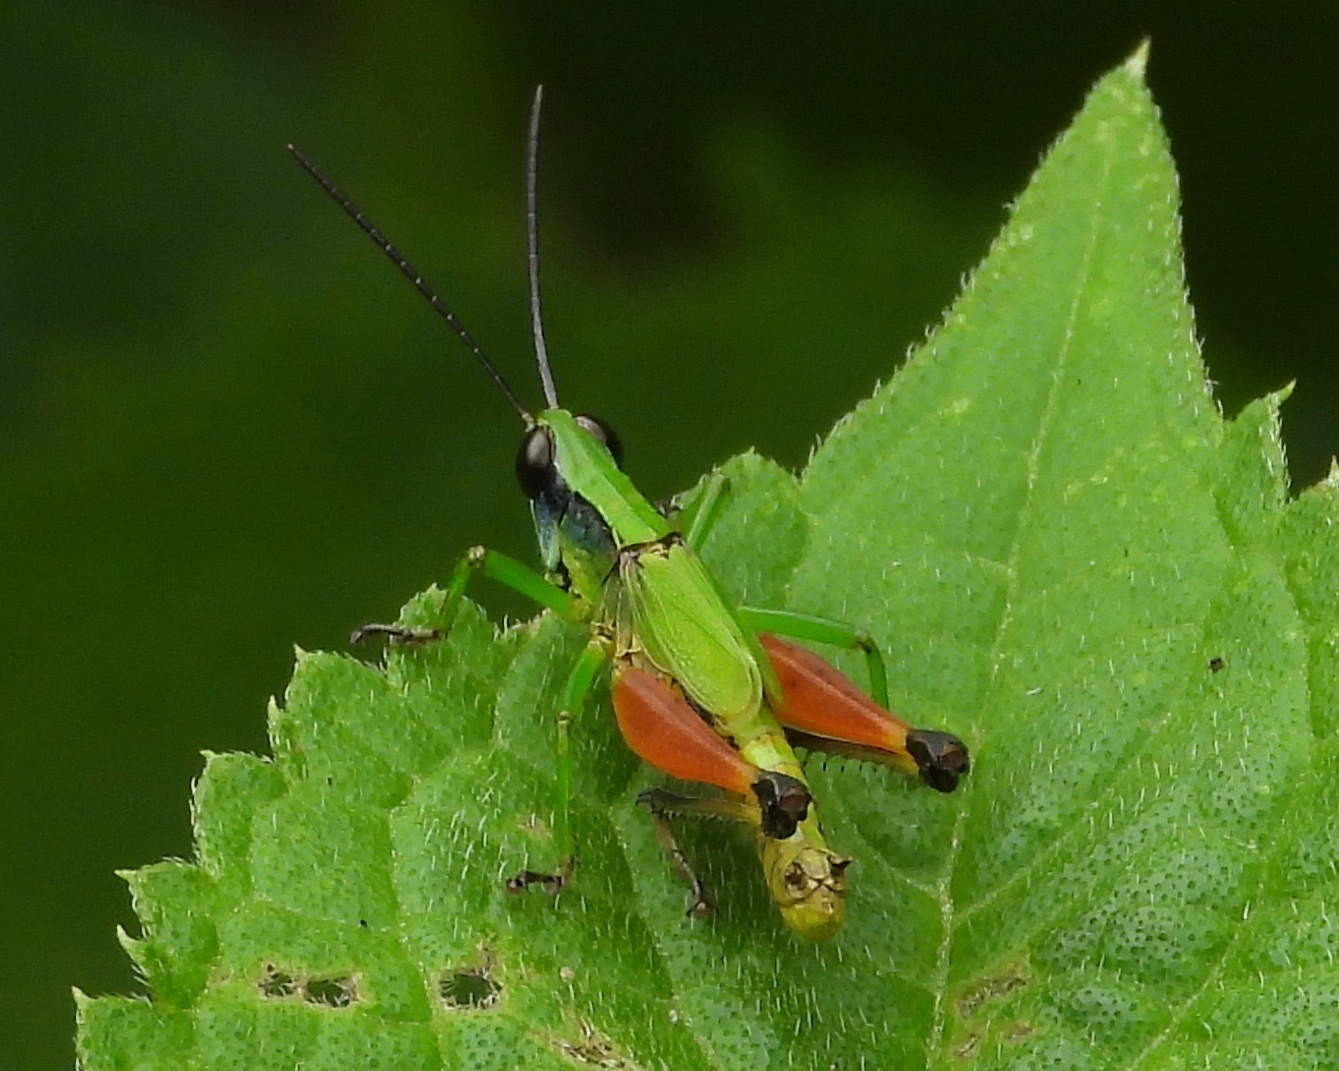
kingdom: Animalia
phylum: Arthropoda
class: Insecta
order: Orthoptera
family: Acrididae
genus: Phaneroturis
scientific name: Phaneroturis cupido
